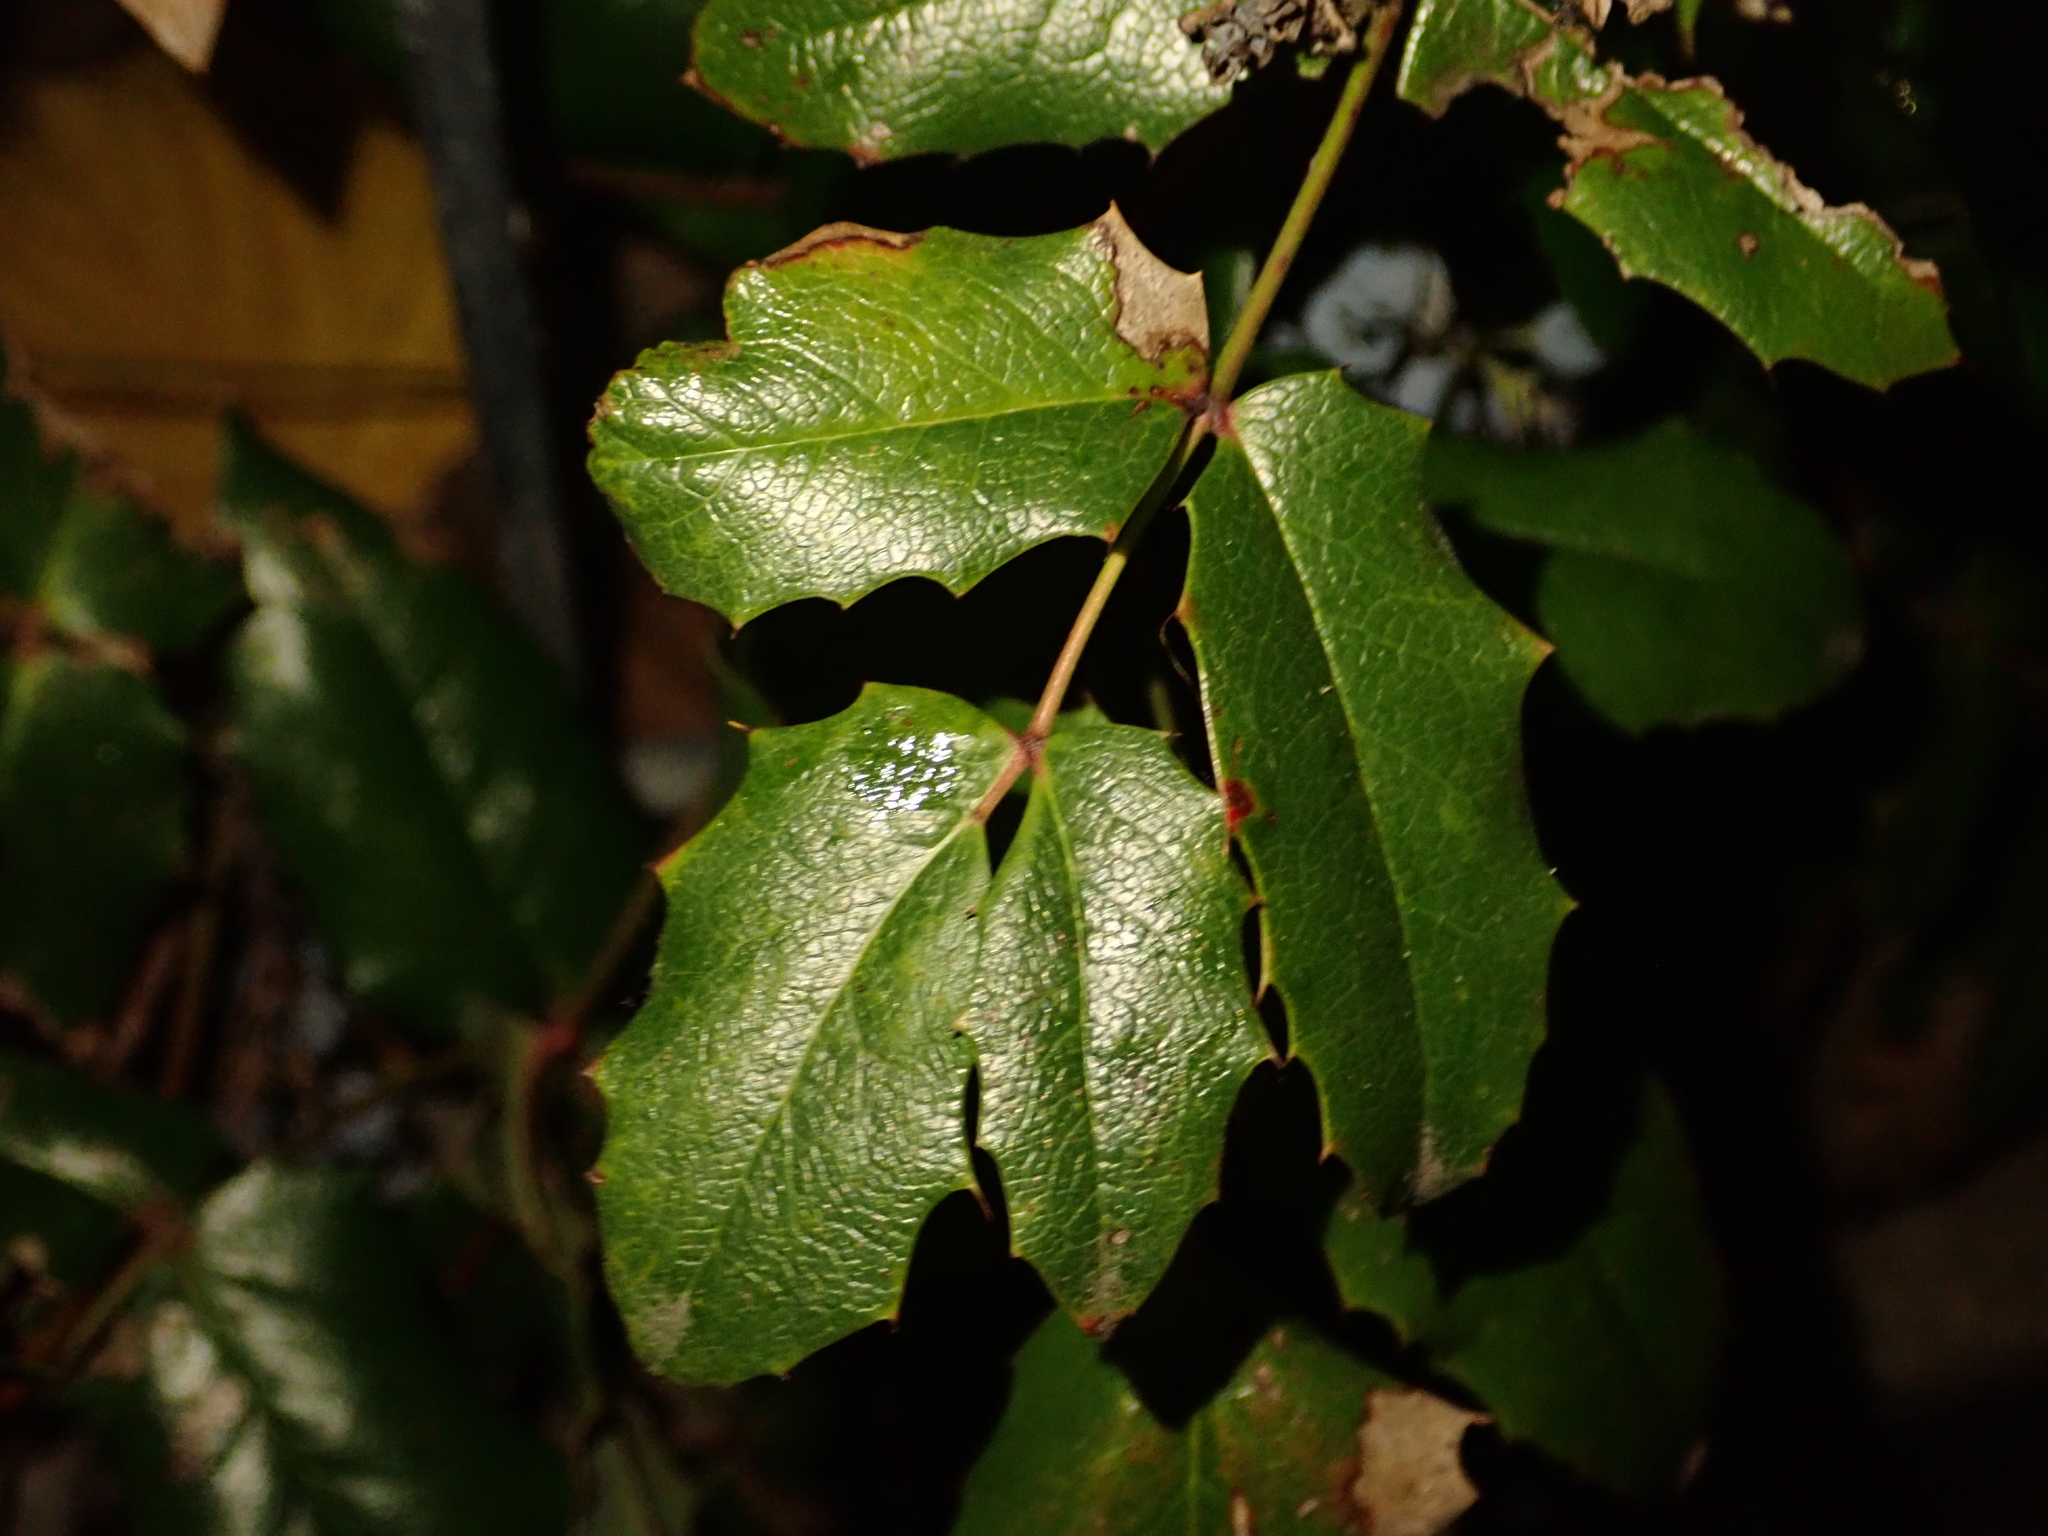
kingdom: Plantae
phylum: Tracheophyta
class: Magnoliopsida
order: Ranunculales
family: Berberidaceae
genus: Mahonia
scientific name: Mahonia aquifolium
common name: Oregon-grape
